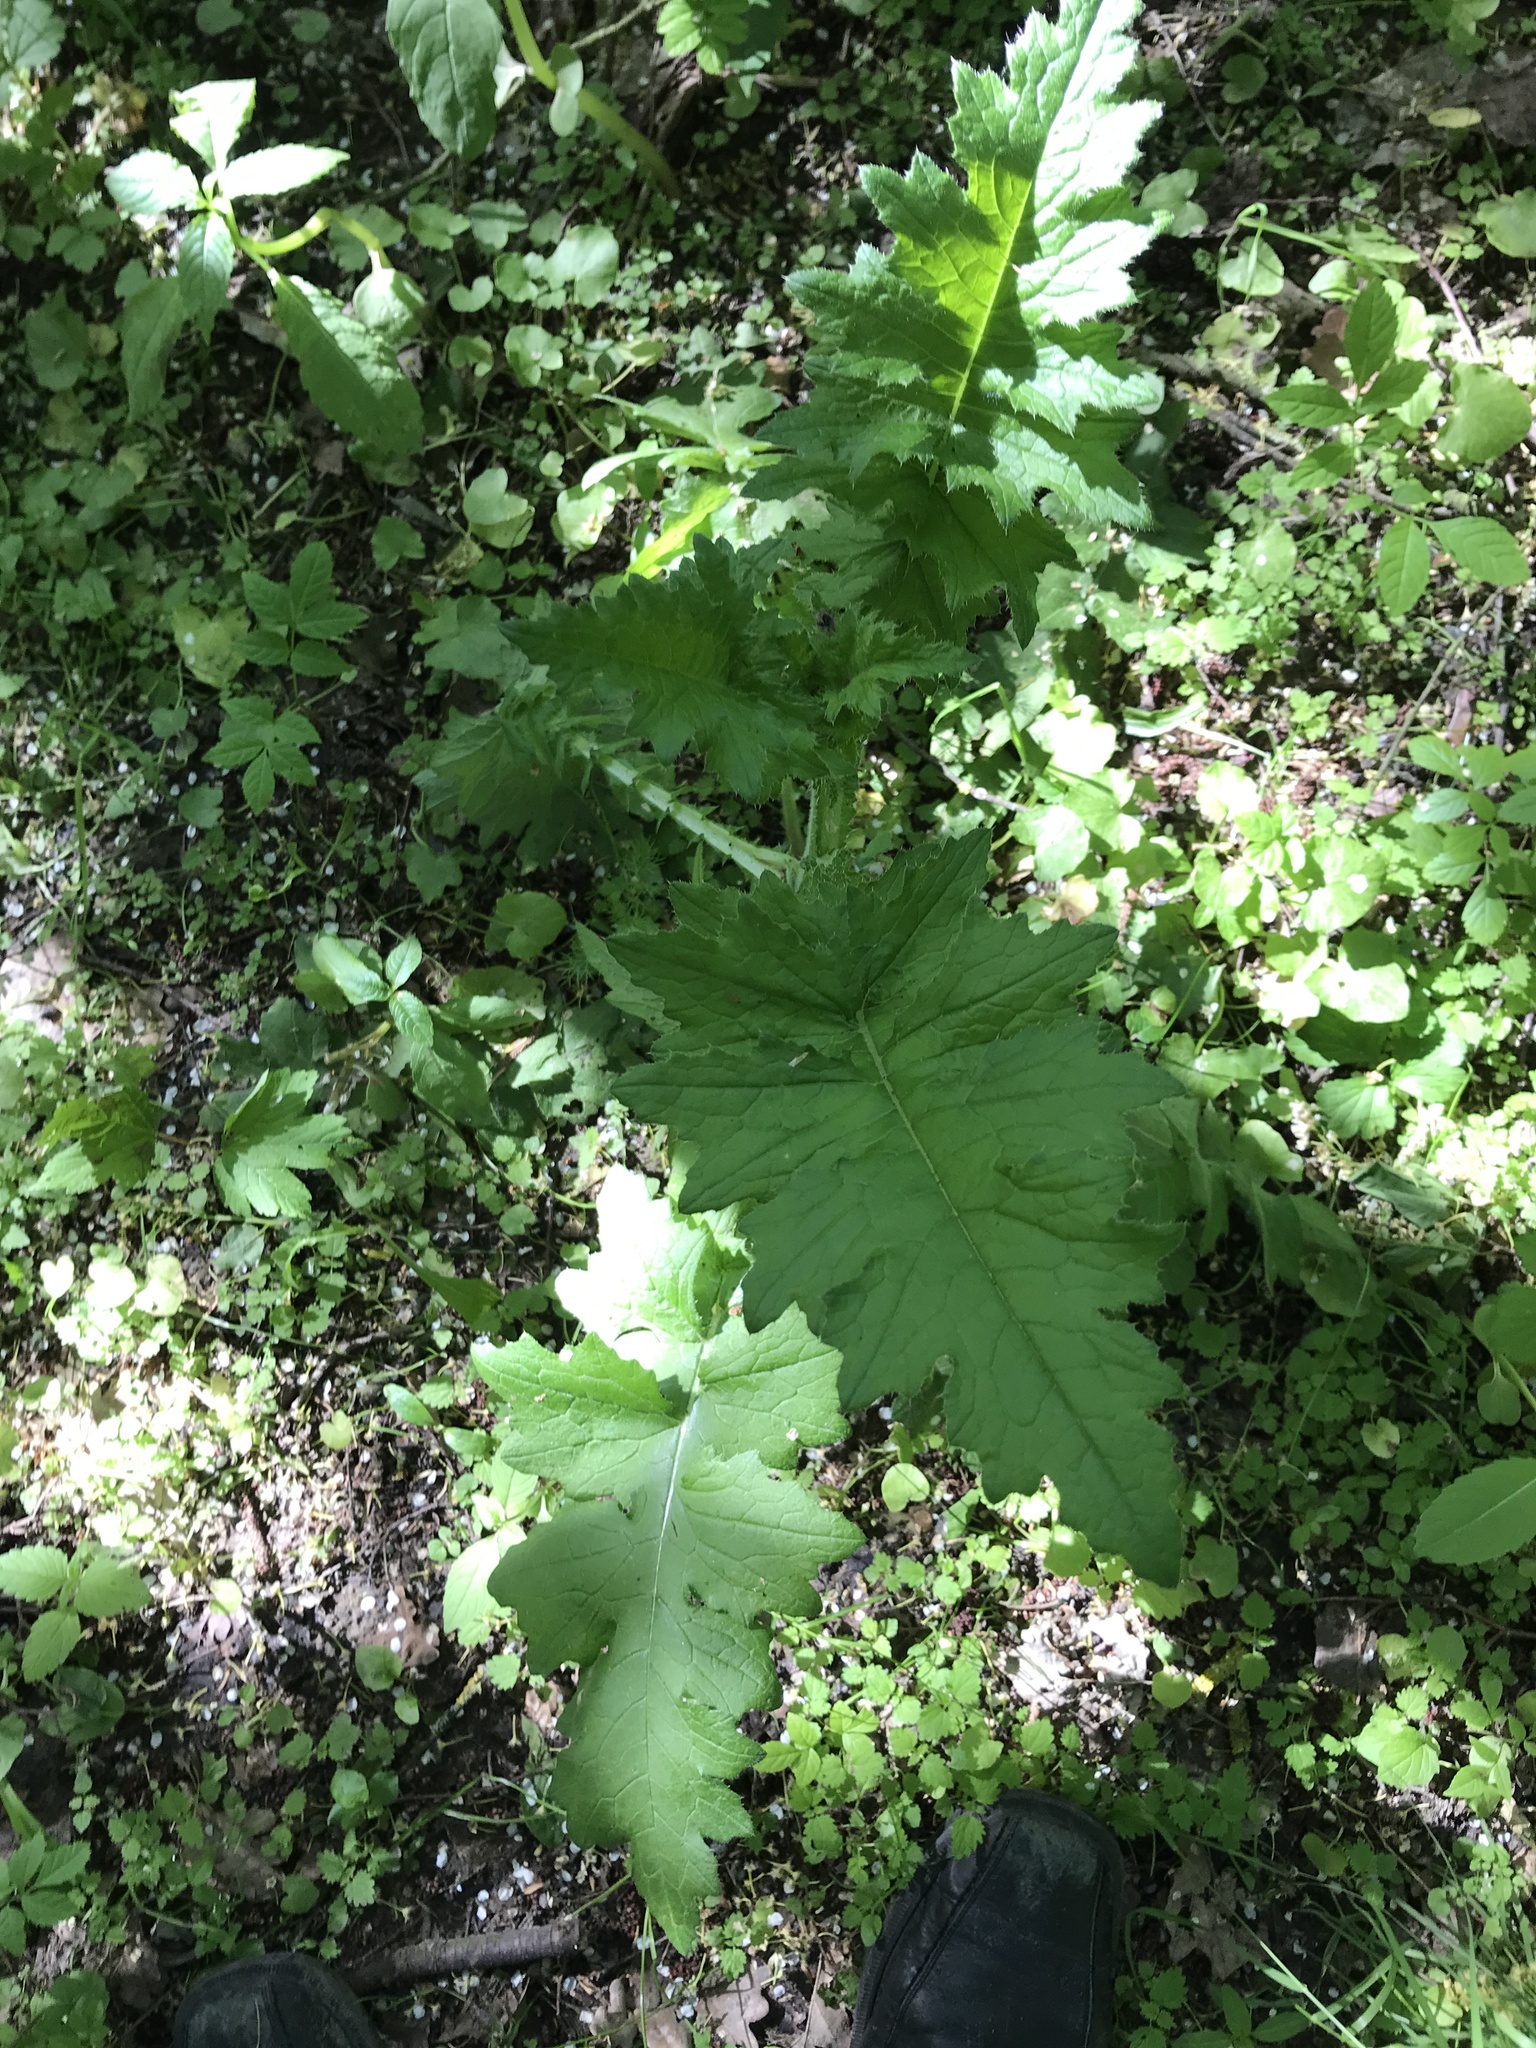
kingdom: Plantae
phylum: Tracheophyta
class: Magnoliopsida
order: Asterales
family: Asteraceae
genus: Carduus
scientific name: Carduus crispus
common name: Welted thistle
